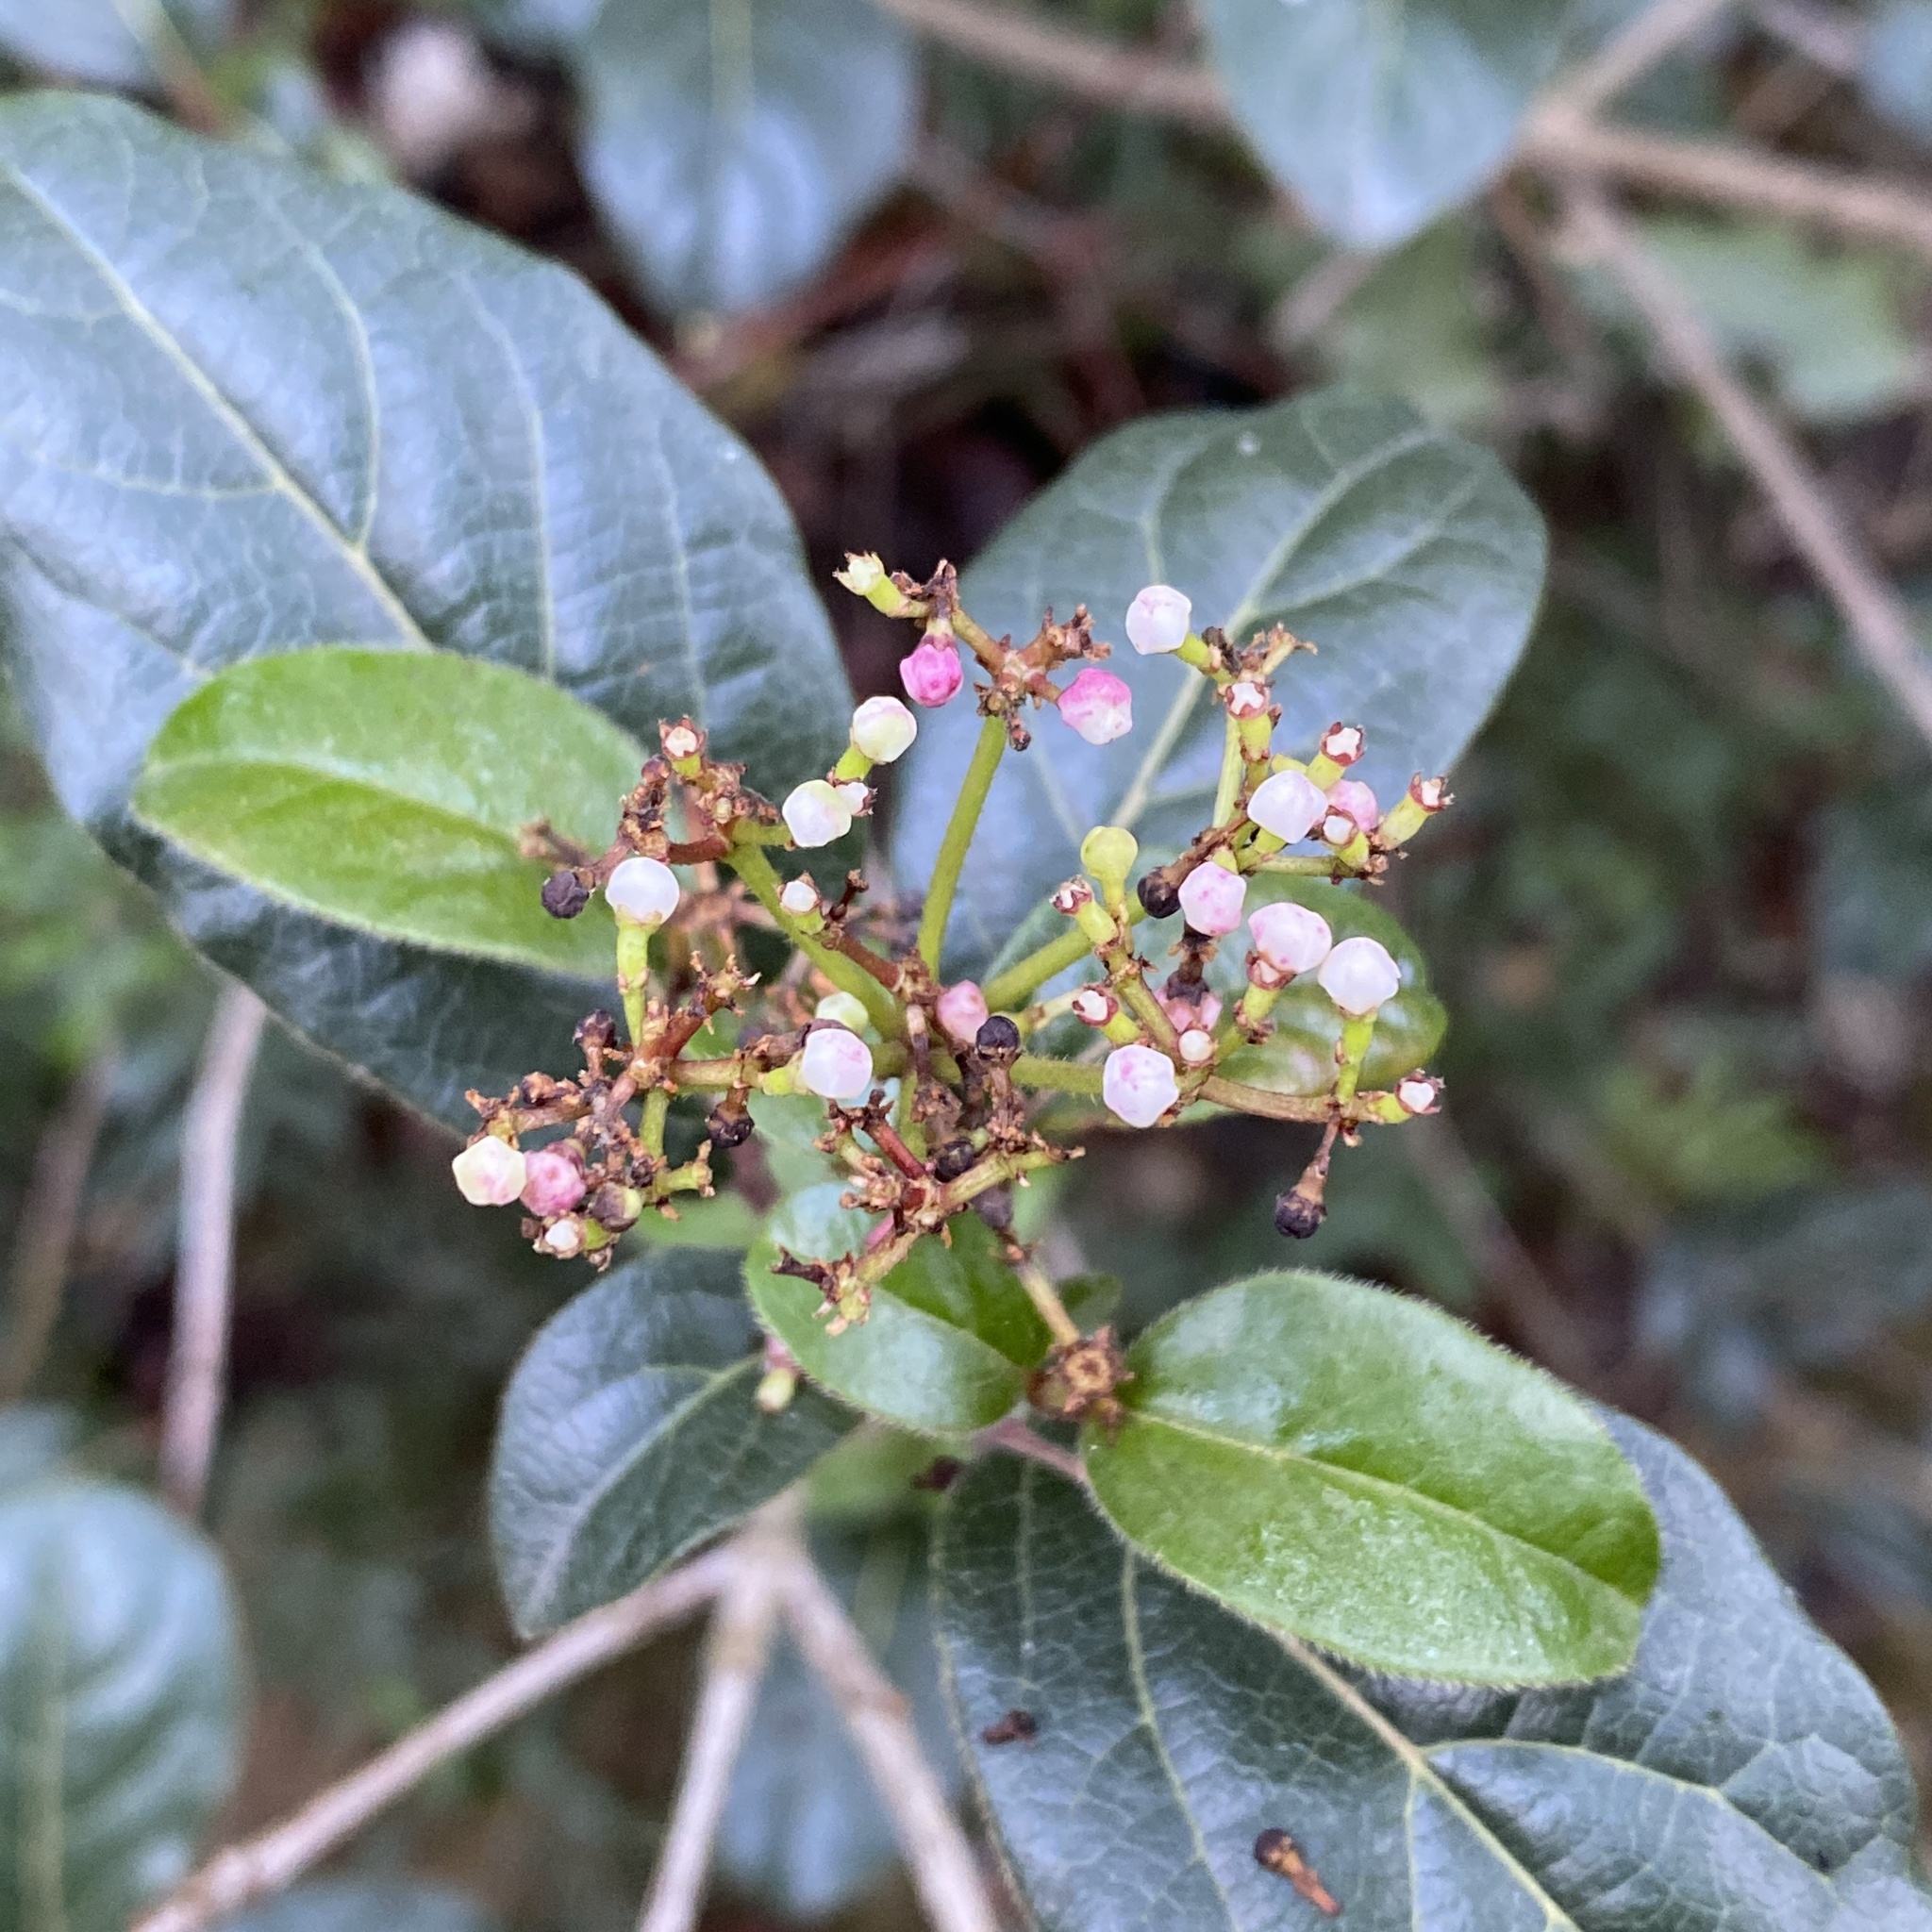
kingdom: Plantae
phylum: Tracheophyta
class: Magnoliopsida
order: Dipsacales
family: Viburnaceae
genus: Viburnum
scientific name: Viburnum tinus
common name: Laurustinus
